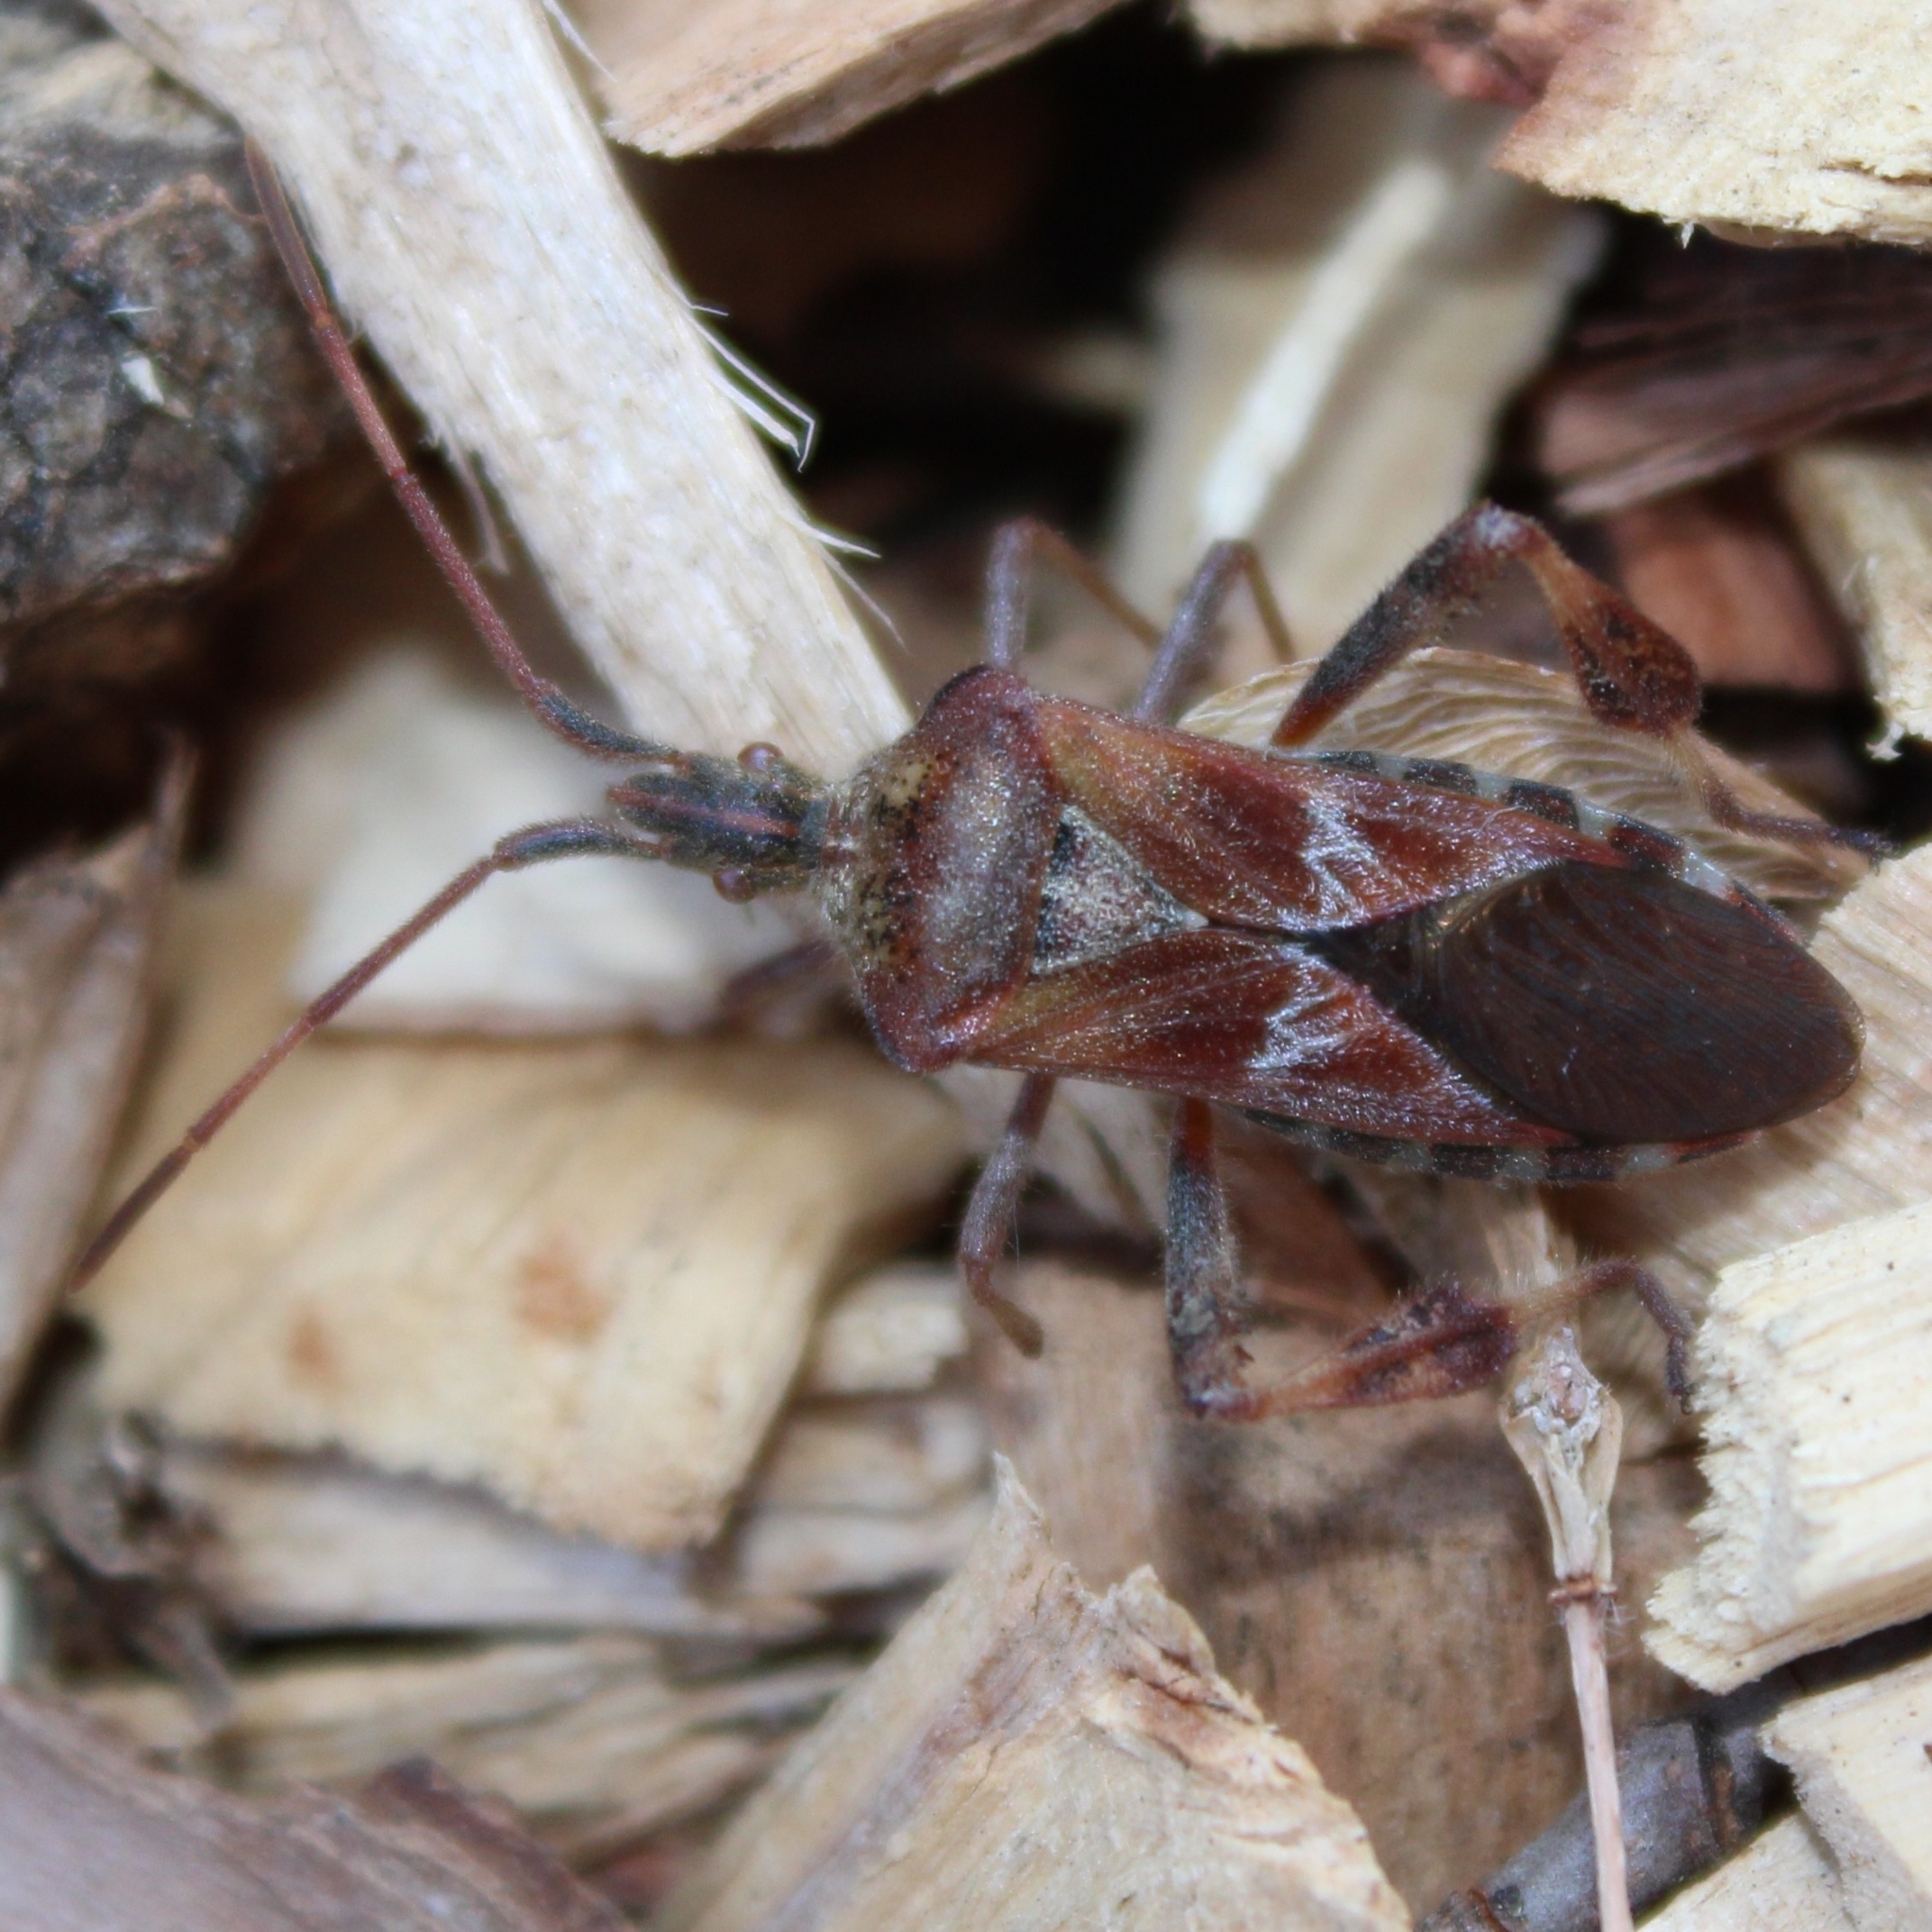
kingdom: Animalia
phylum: Arthropoda
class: Insecta
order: Hemiptera
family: Coreidae
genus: Leptoglossus
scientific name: Leptoglossus occidentalis
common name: Western conifer-seed bug
